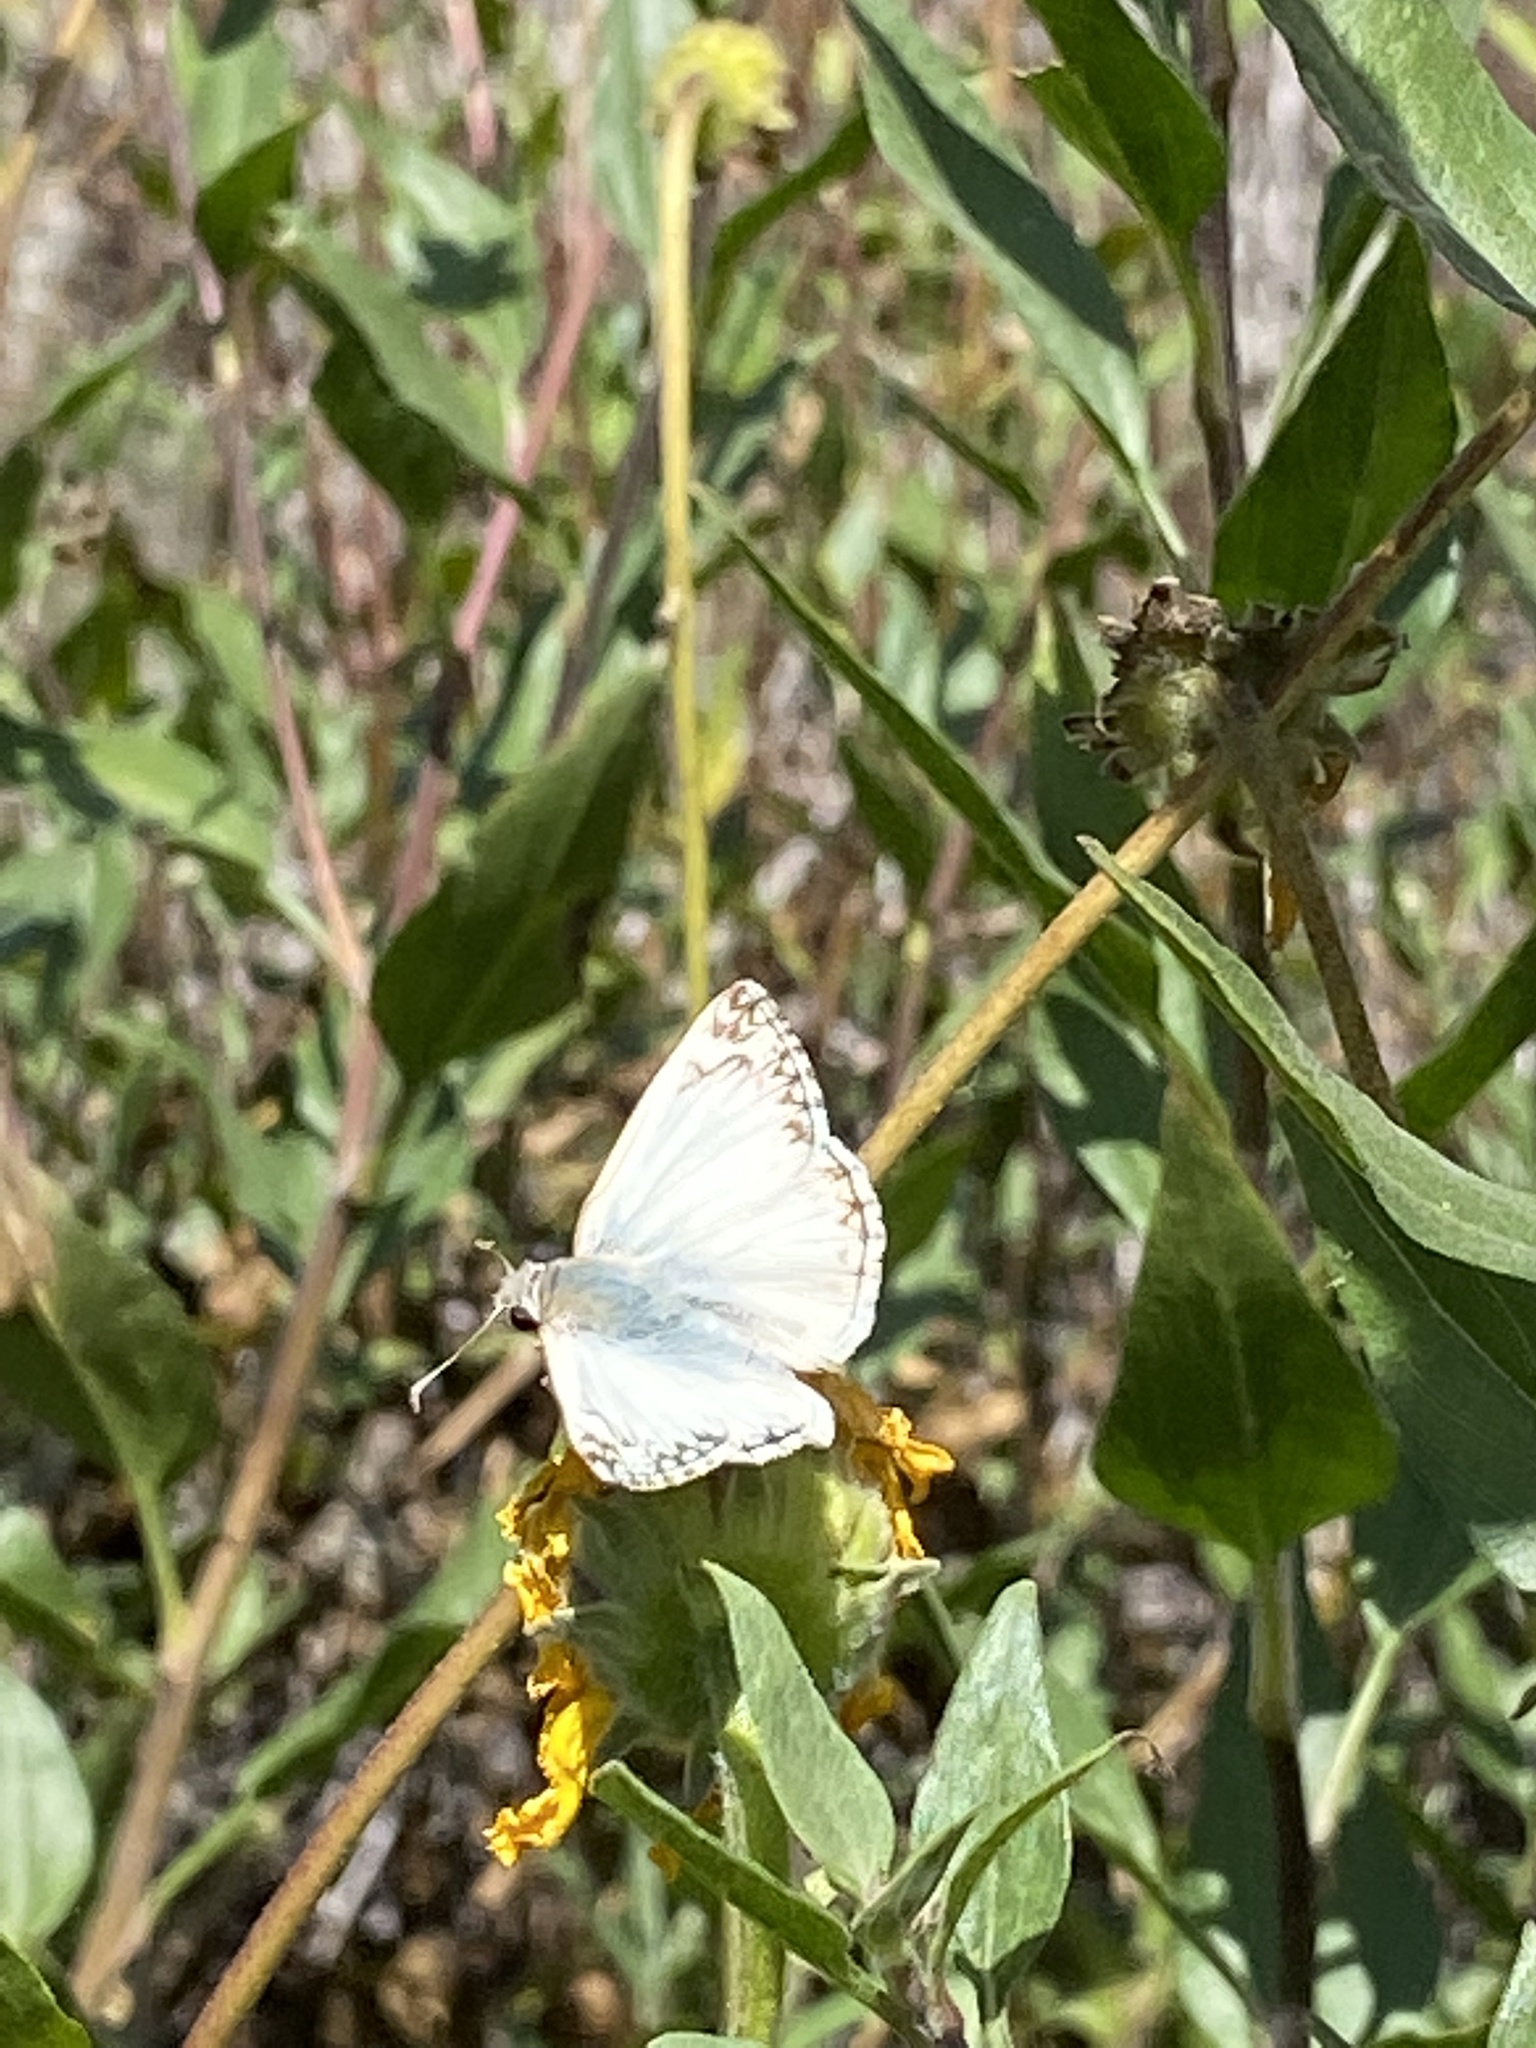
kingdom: Animalia
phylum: Arthropoda
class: Insecta
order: Lepidoptera
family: Hesperiidae
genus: Heliopetes
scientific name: Heliopetes ericetorum
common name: Northern white-skipper
